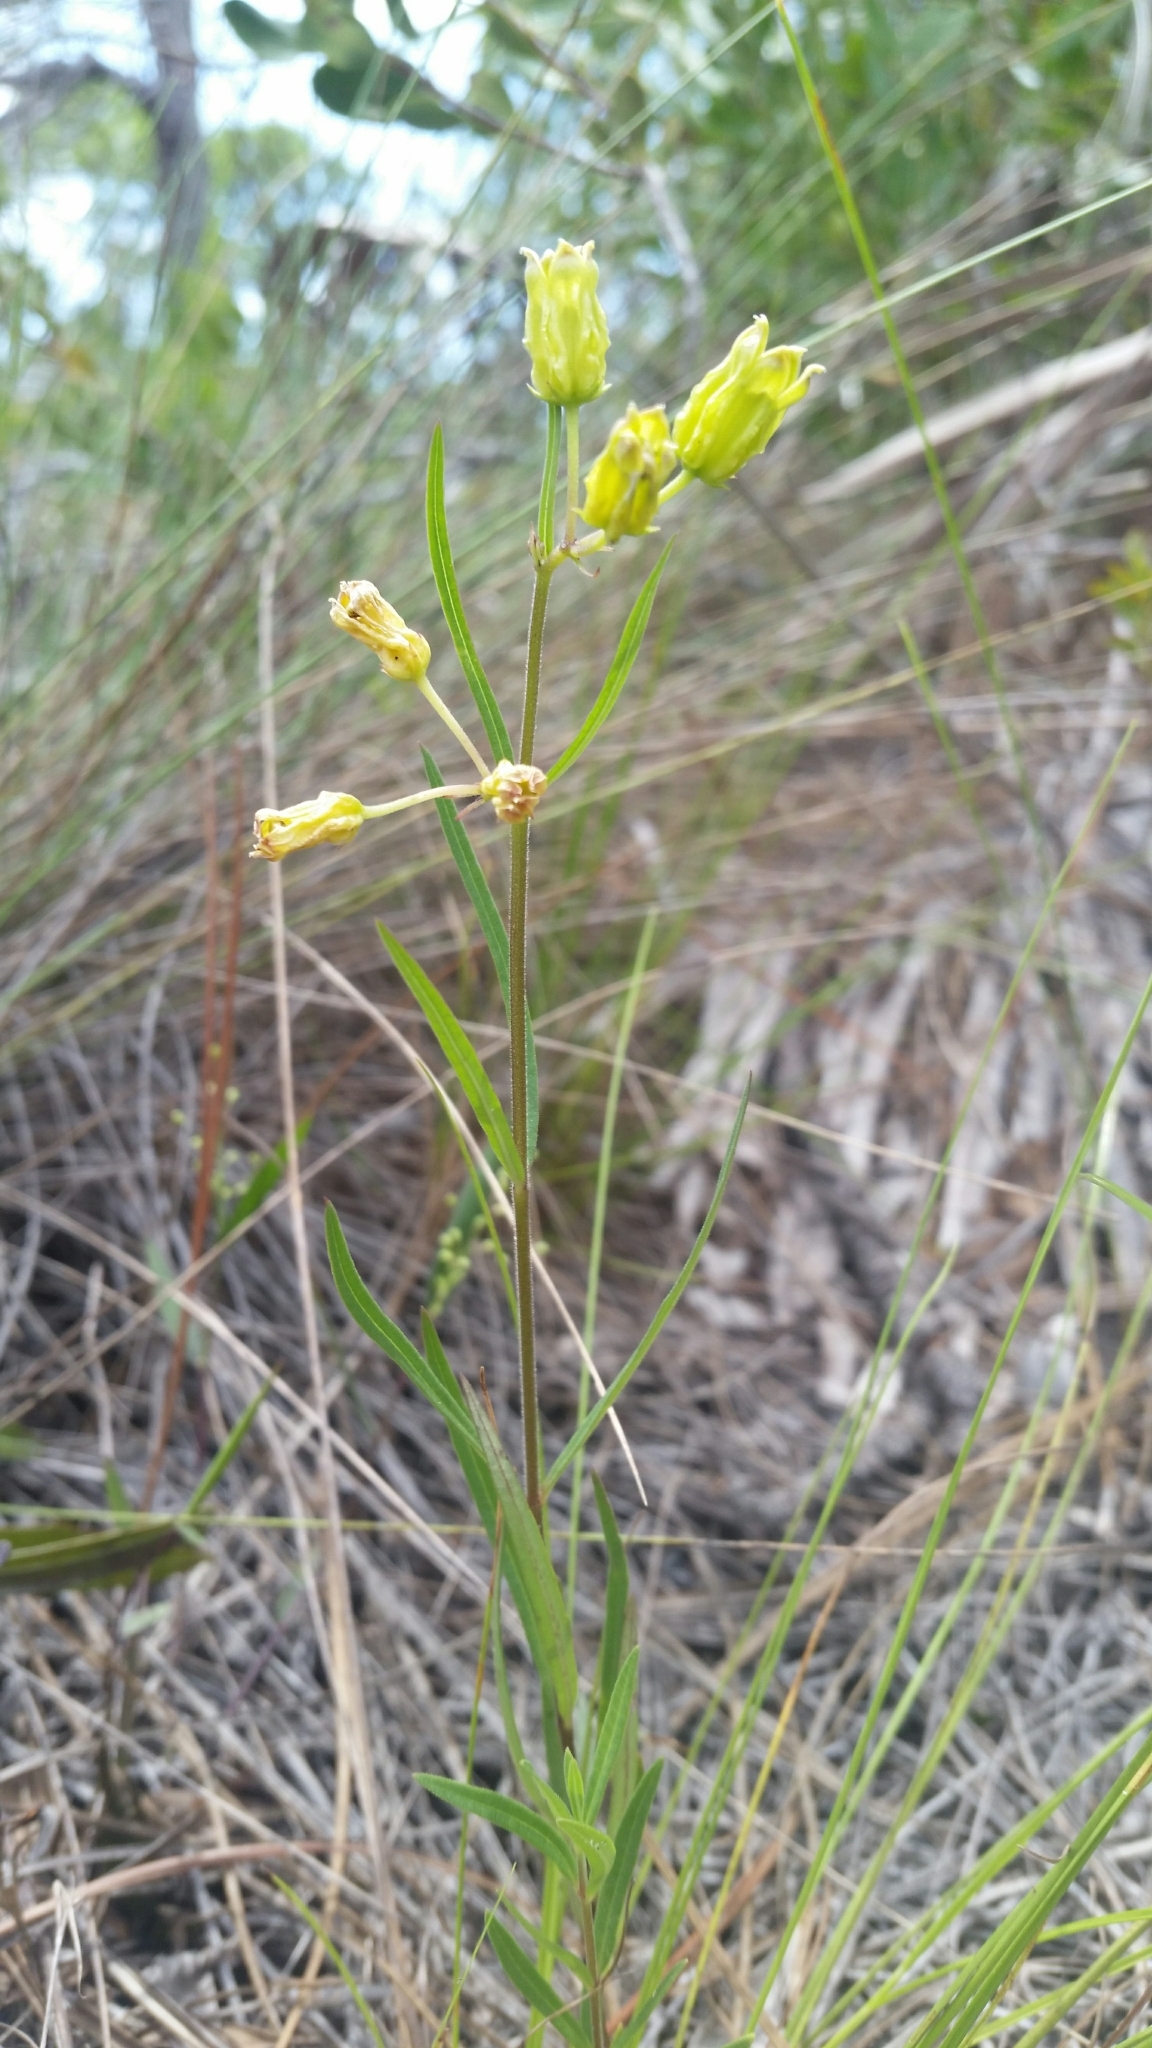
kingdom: Plantae
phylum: Tracheophyta
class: Magnoliopsida
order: Gentianales
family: Apocynaceae
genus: Asclepias
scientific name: Asclepias pedicellata
